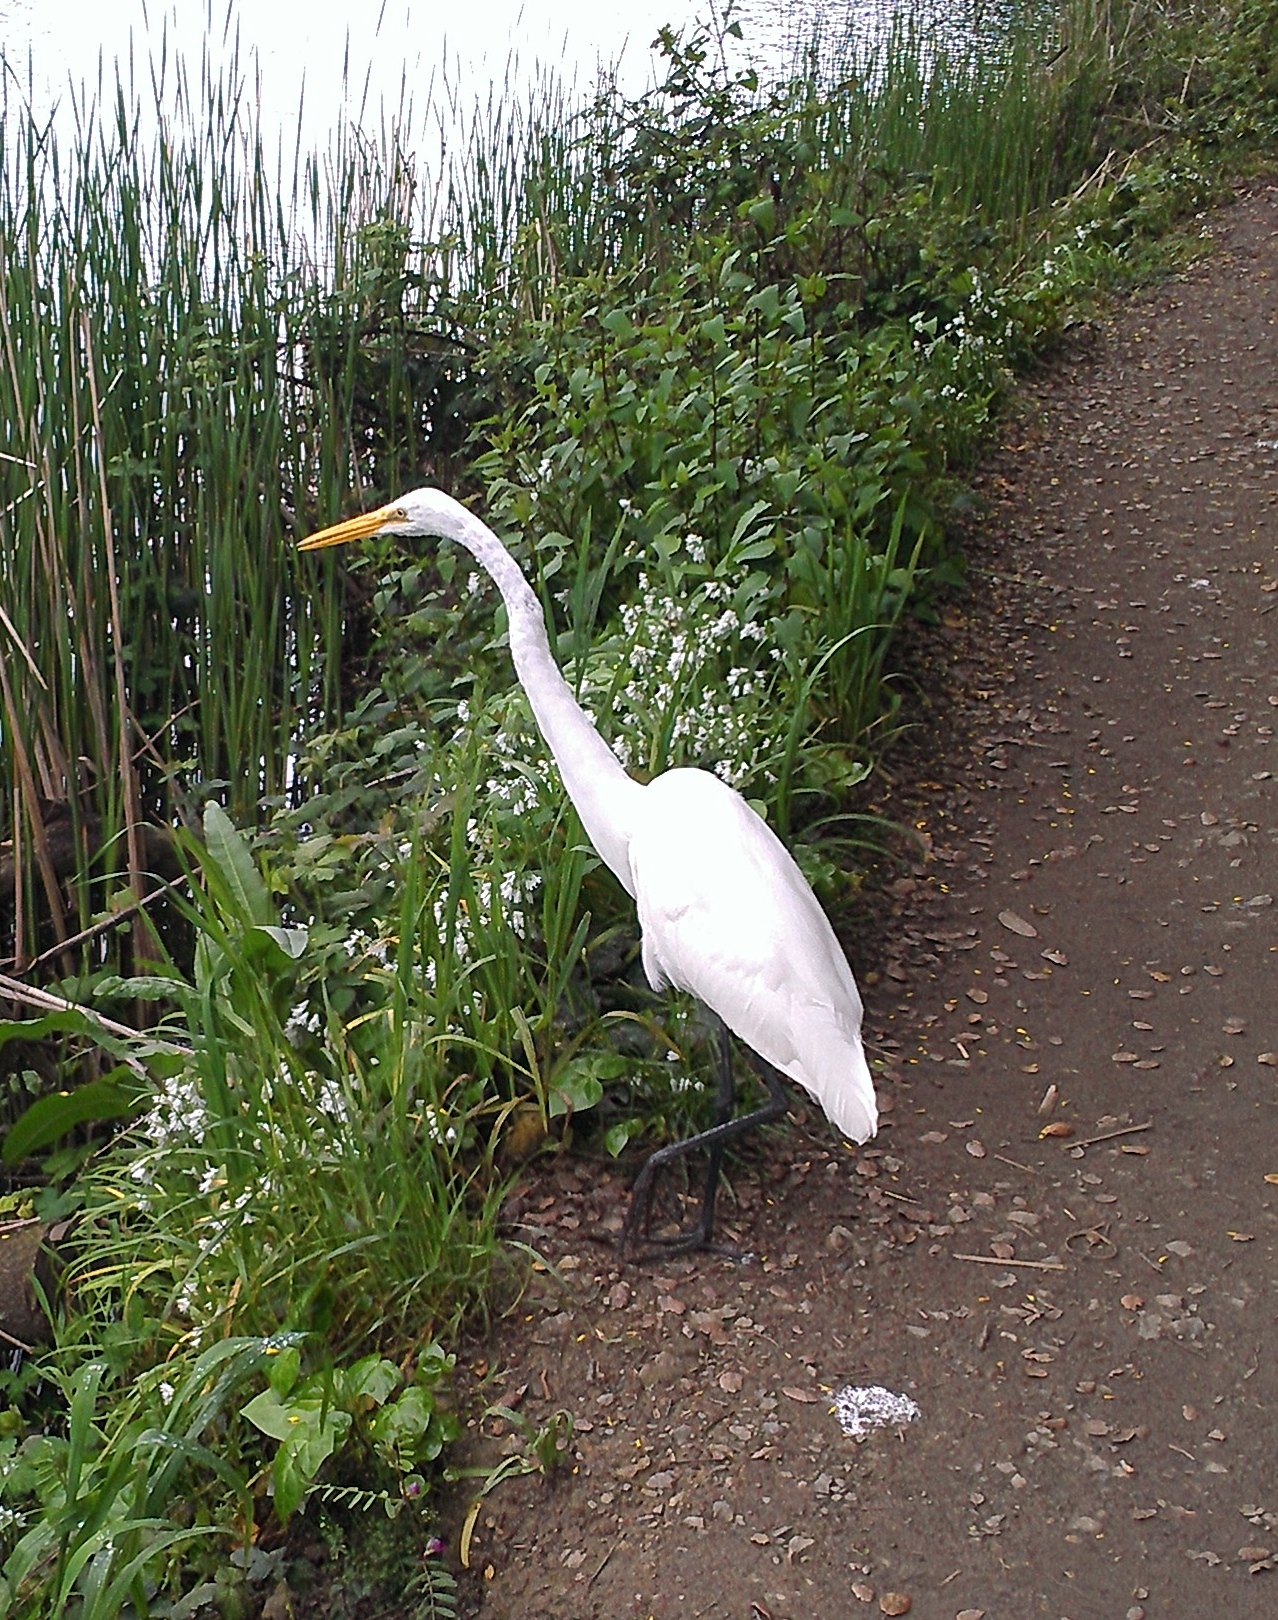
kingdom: Animalia
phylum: Chordata
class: Aves
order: Pelecaniformes
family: Ardeidae
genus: Ardea
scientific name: Ardea alba
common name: Great egret
